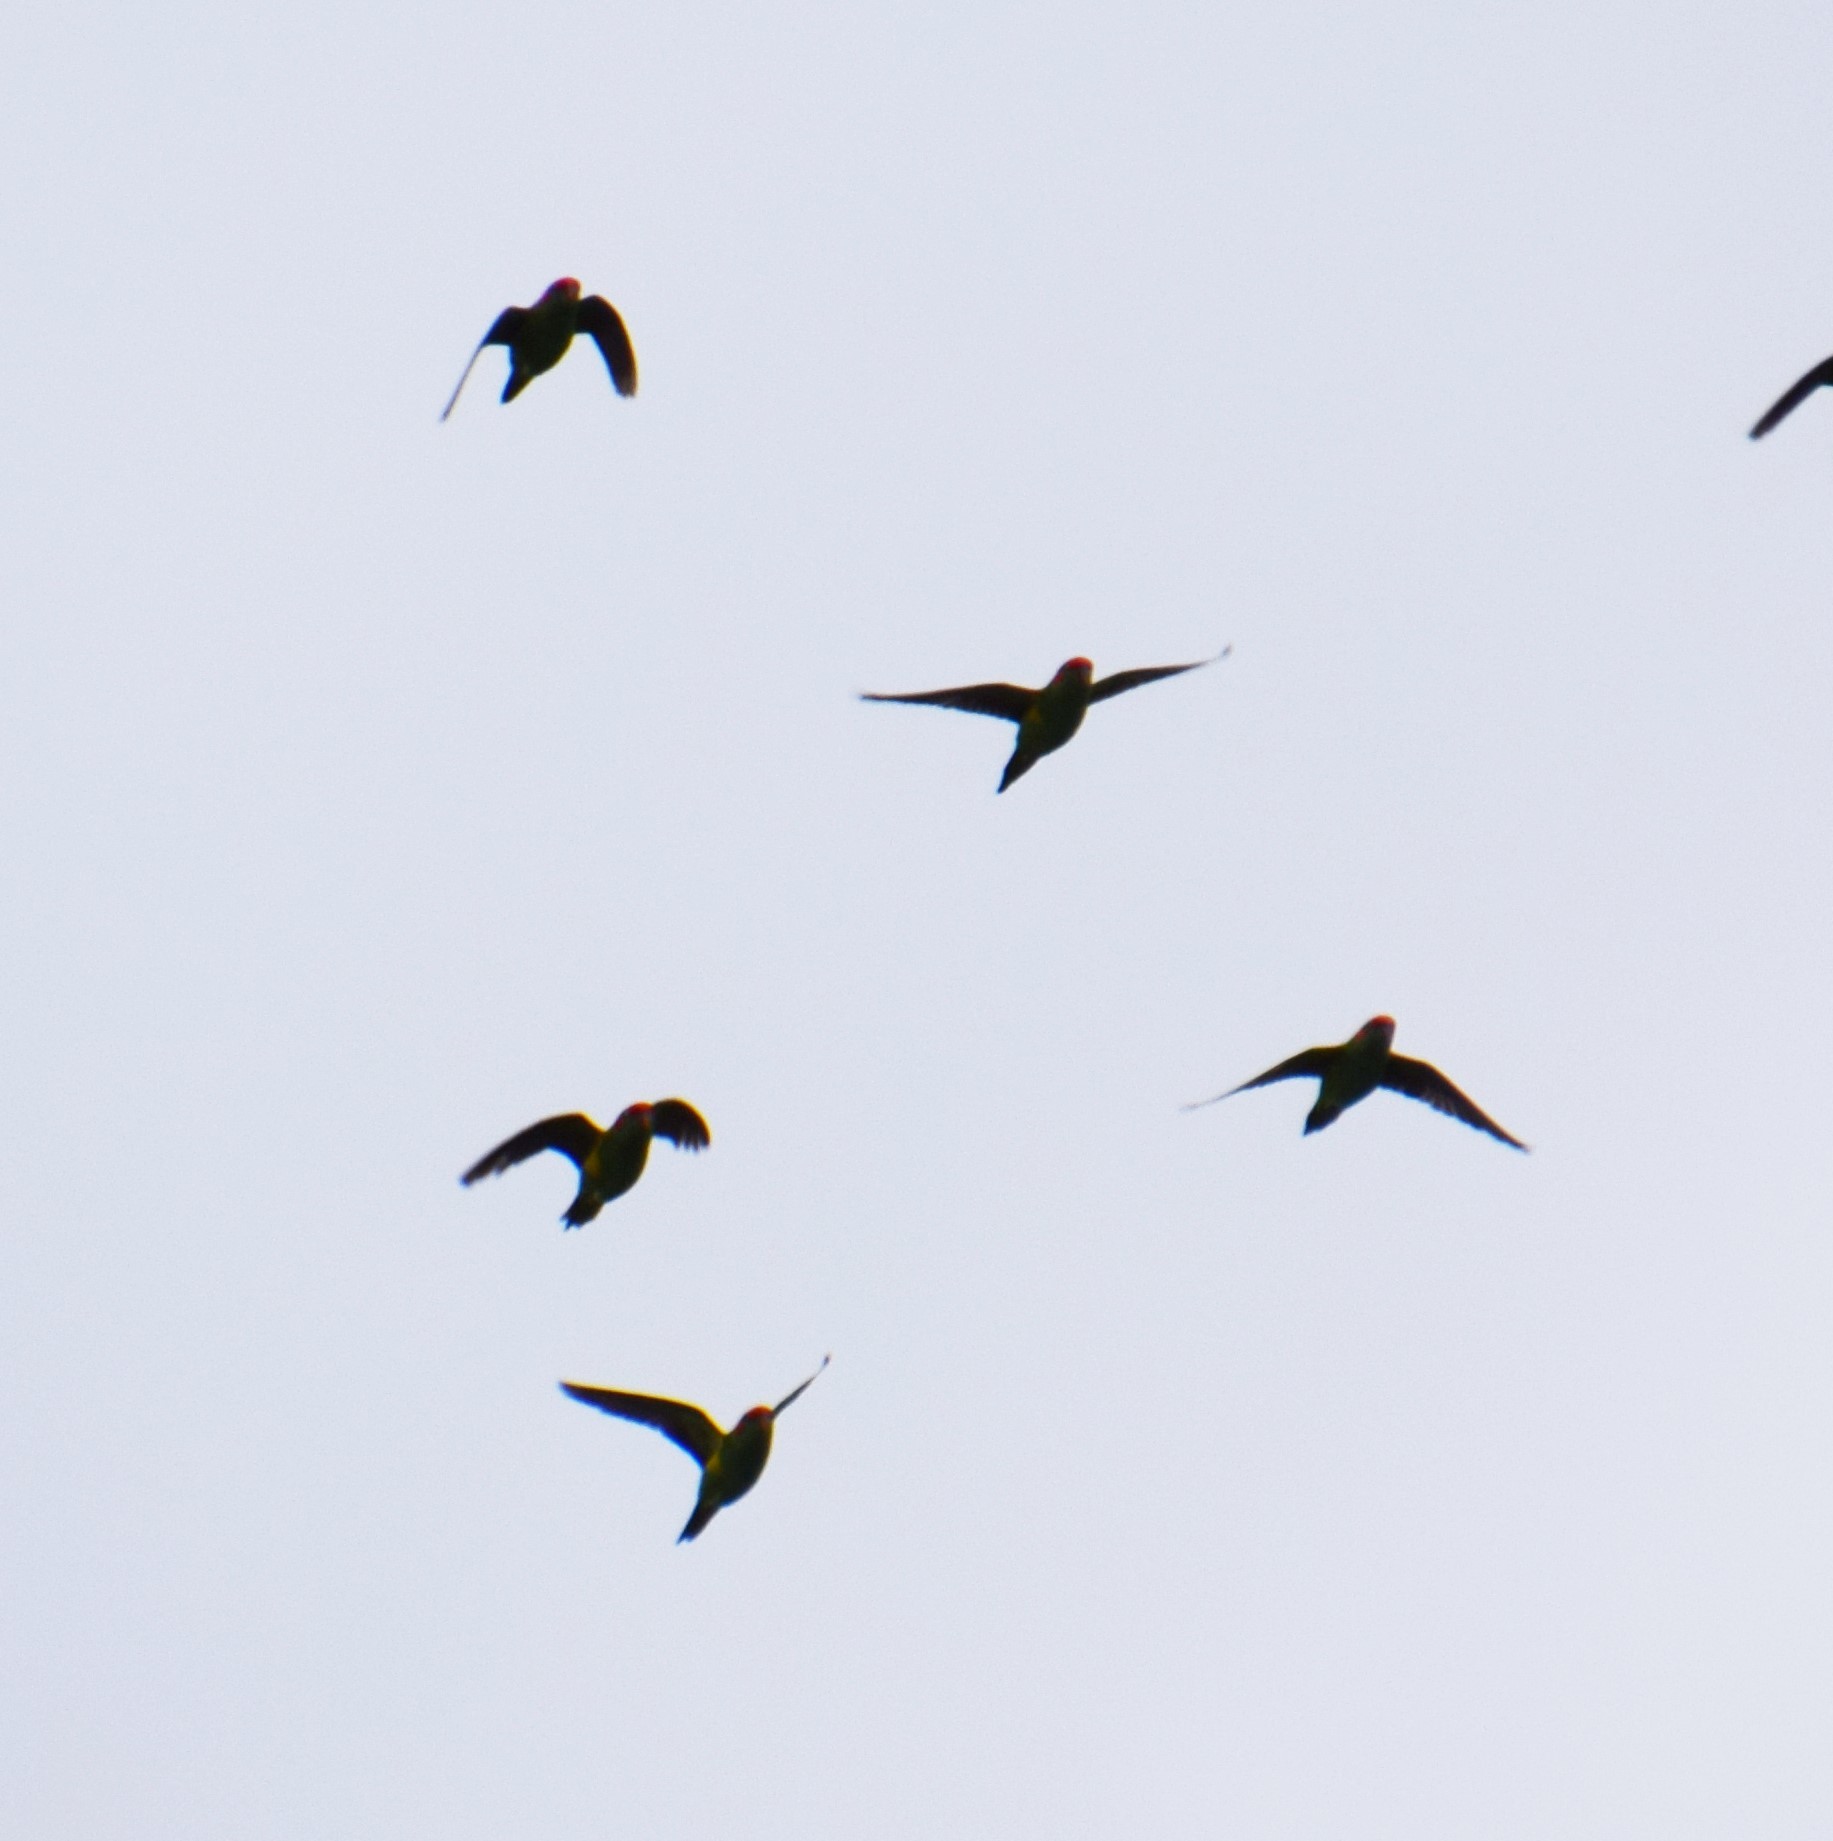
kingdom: Animalia
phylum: Chordata
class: Aves
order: Psittaciformes
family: Psittacidae
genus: Glossopsitta
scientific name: Glossopsitta concinna
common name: Musk lorikeet
